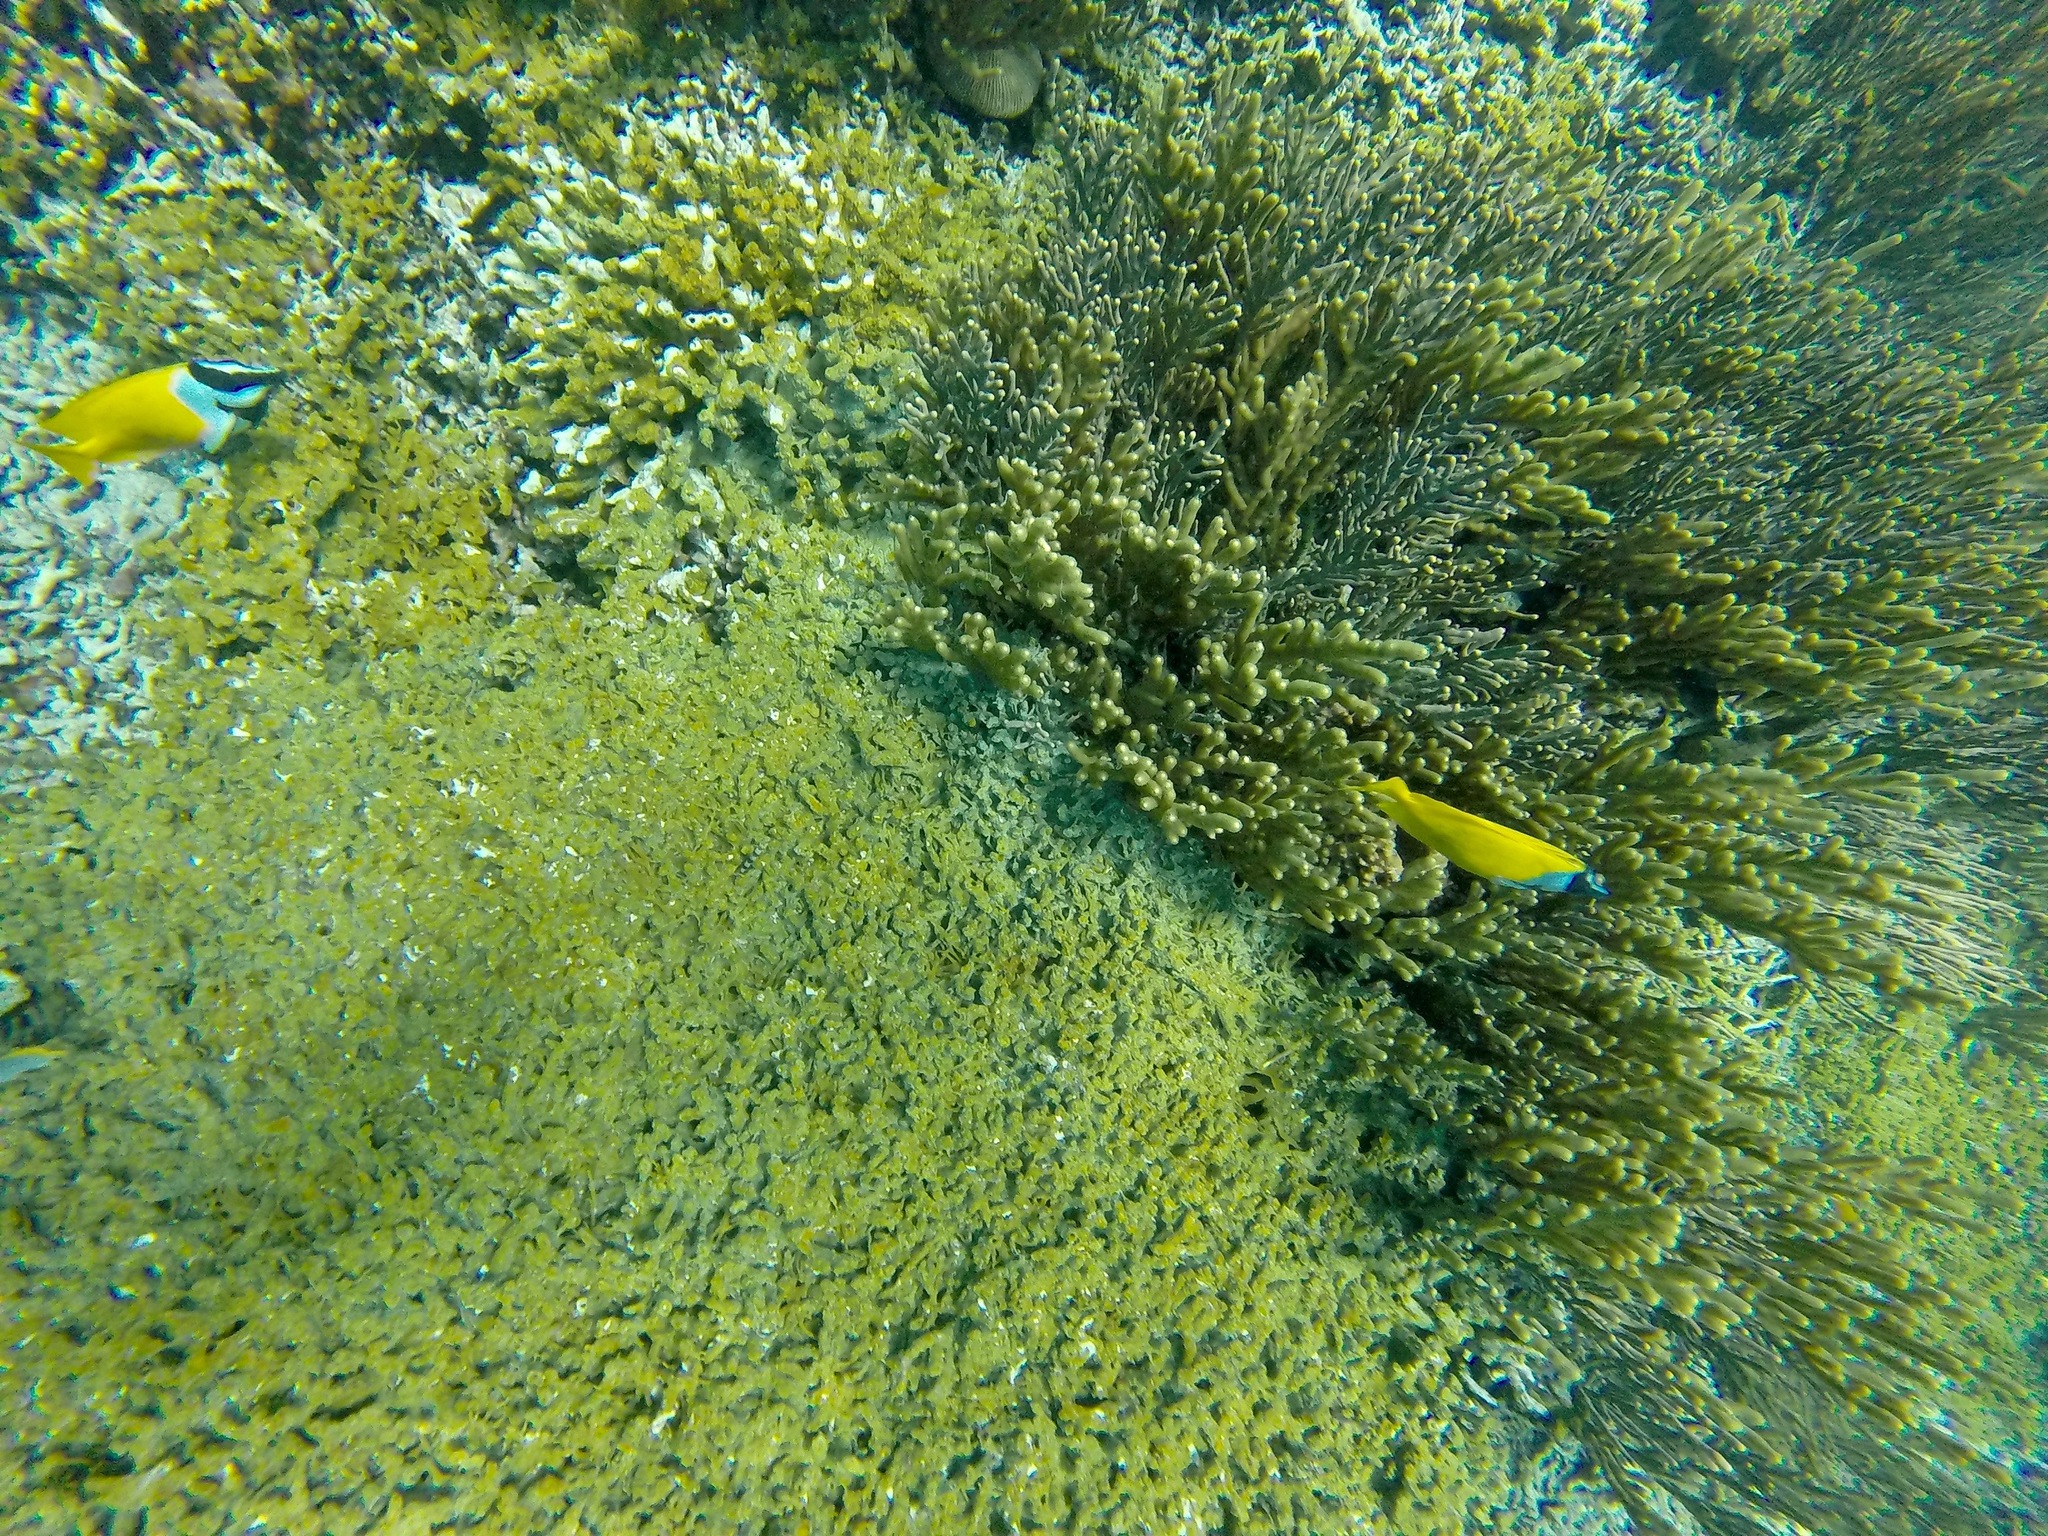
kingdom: Animalia
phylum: Chordata
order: Perciformes
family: Siganidae
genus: Siganus
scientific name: Siganus vulpinus
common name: Foxface
